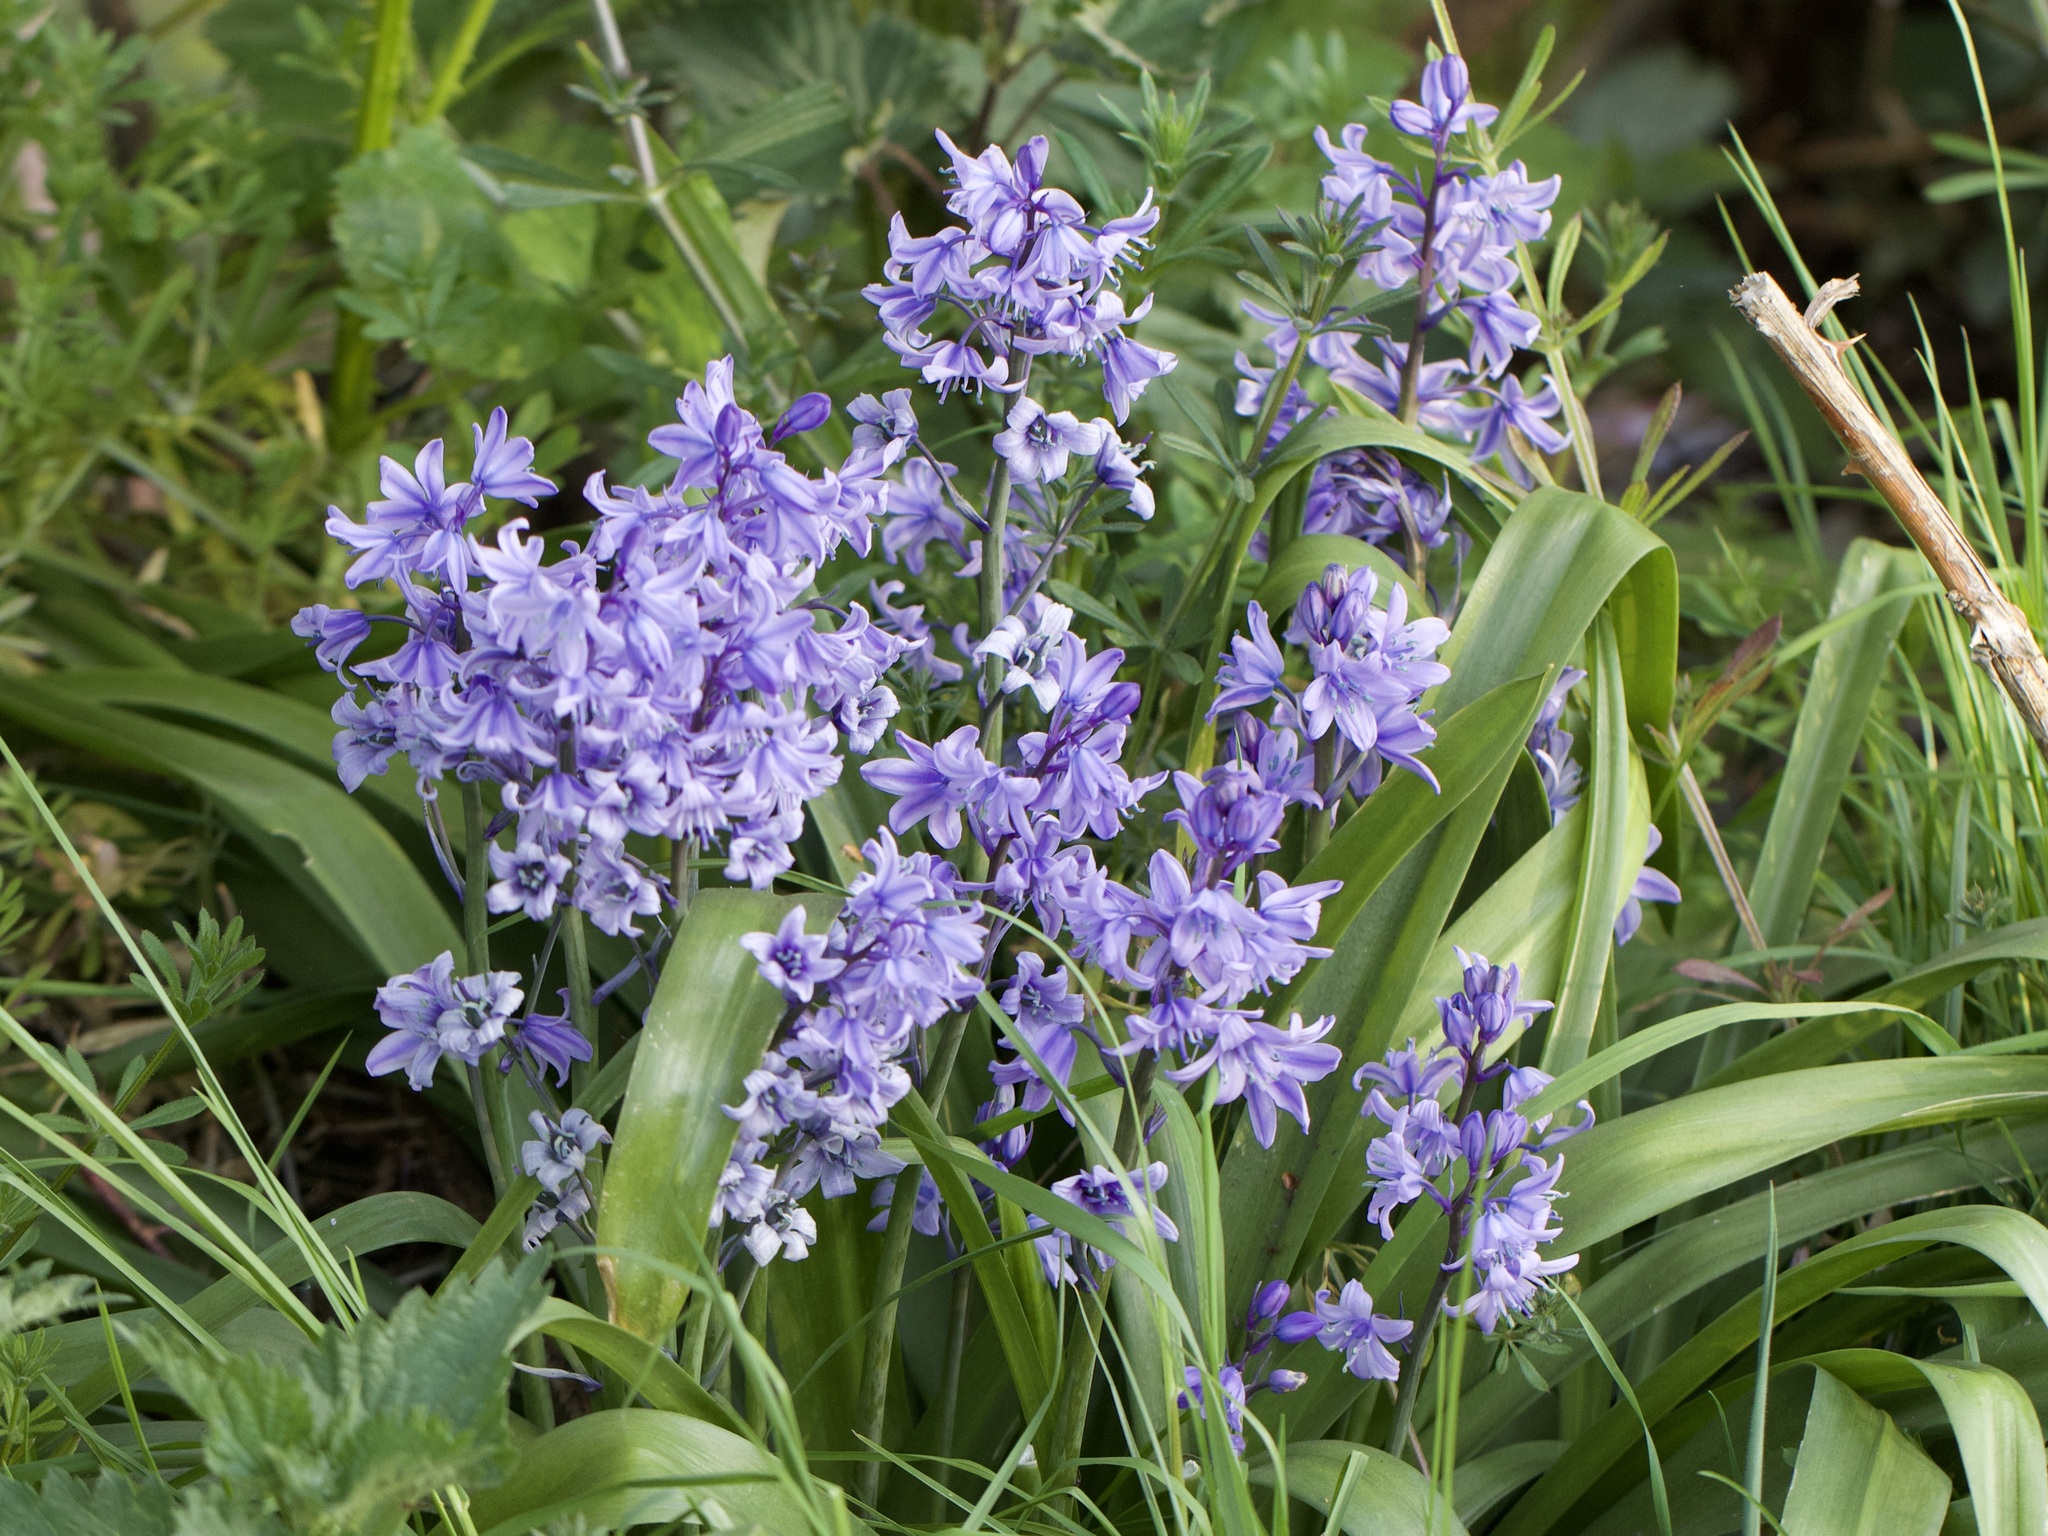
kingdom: Plantae
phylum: Tracheophyta
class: Liliopsida
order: Asparagales
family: Asparagaceae
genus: Hyacinthoides
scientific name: Hyacinthoides hispanica
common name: Spanish bluebell
